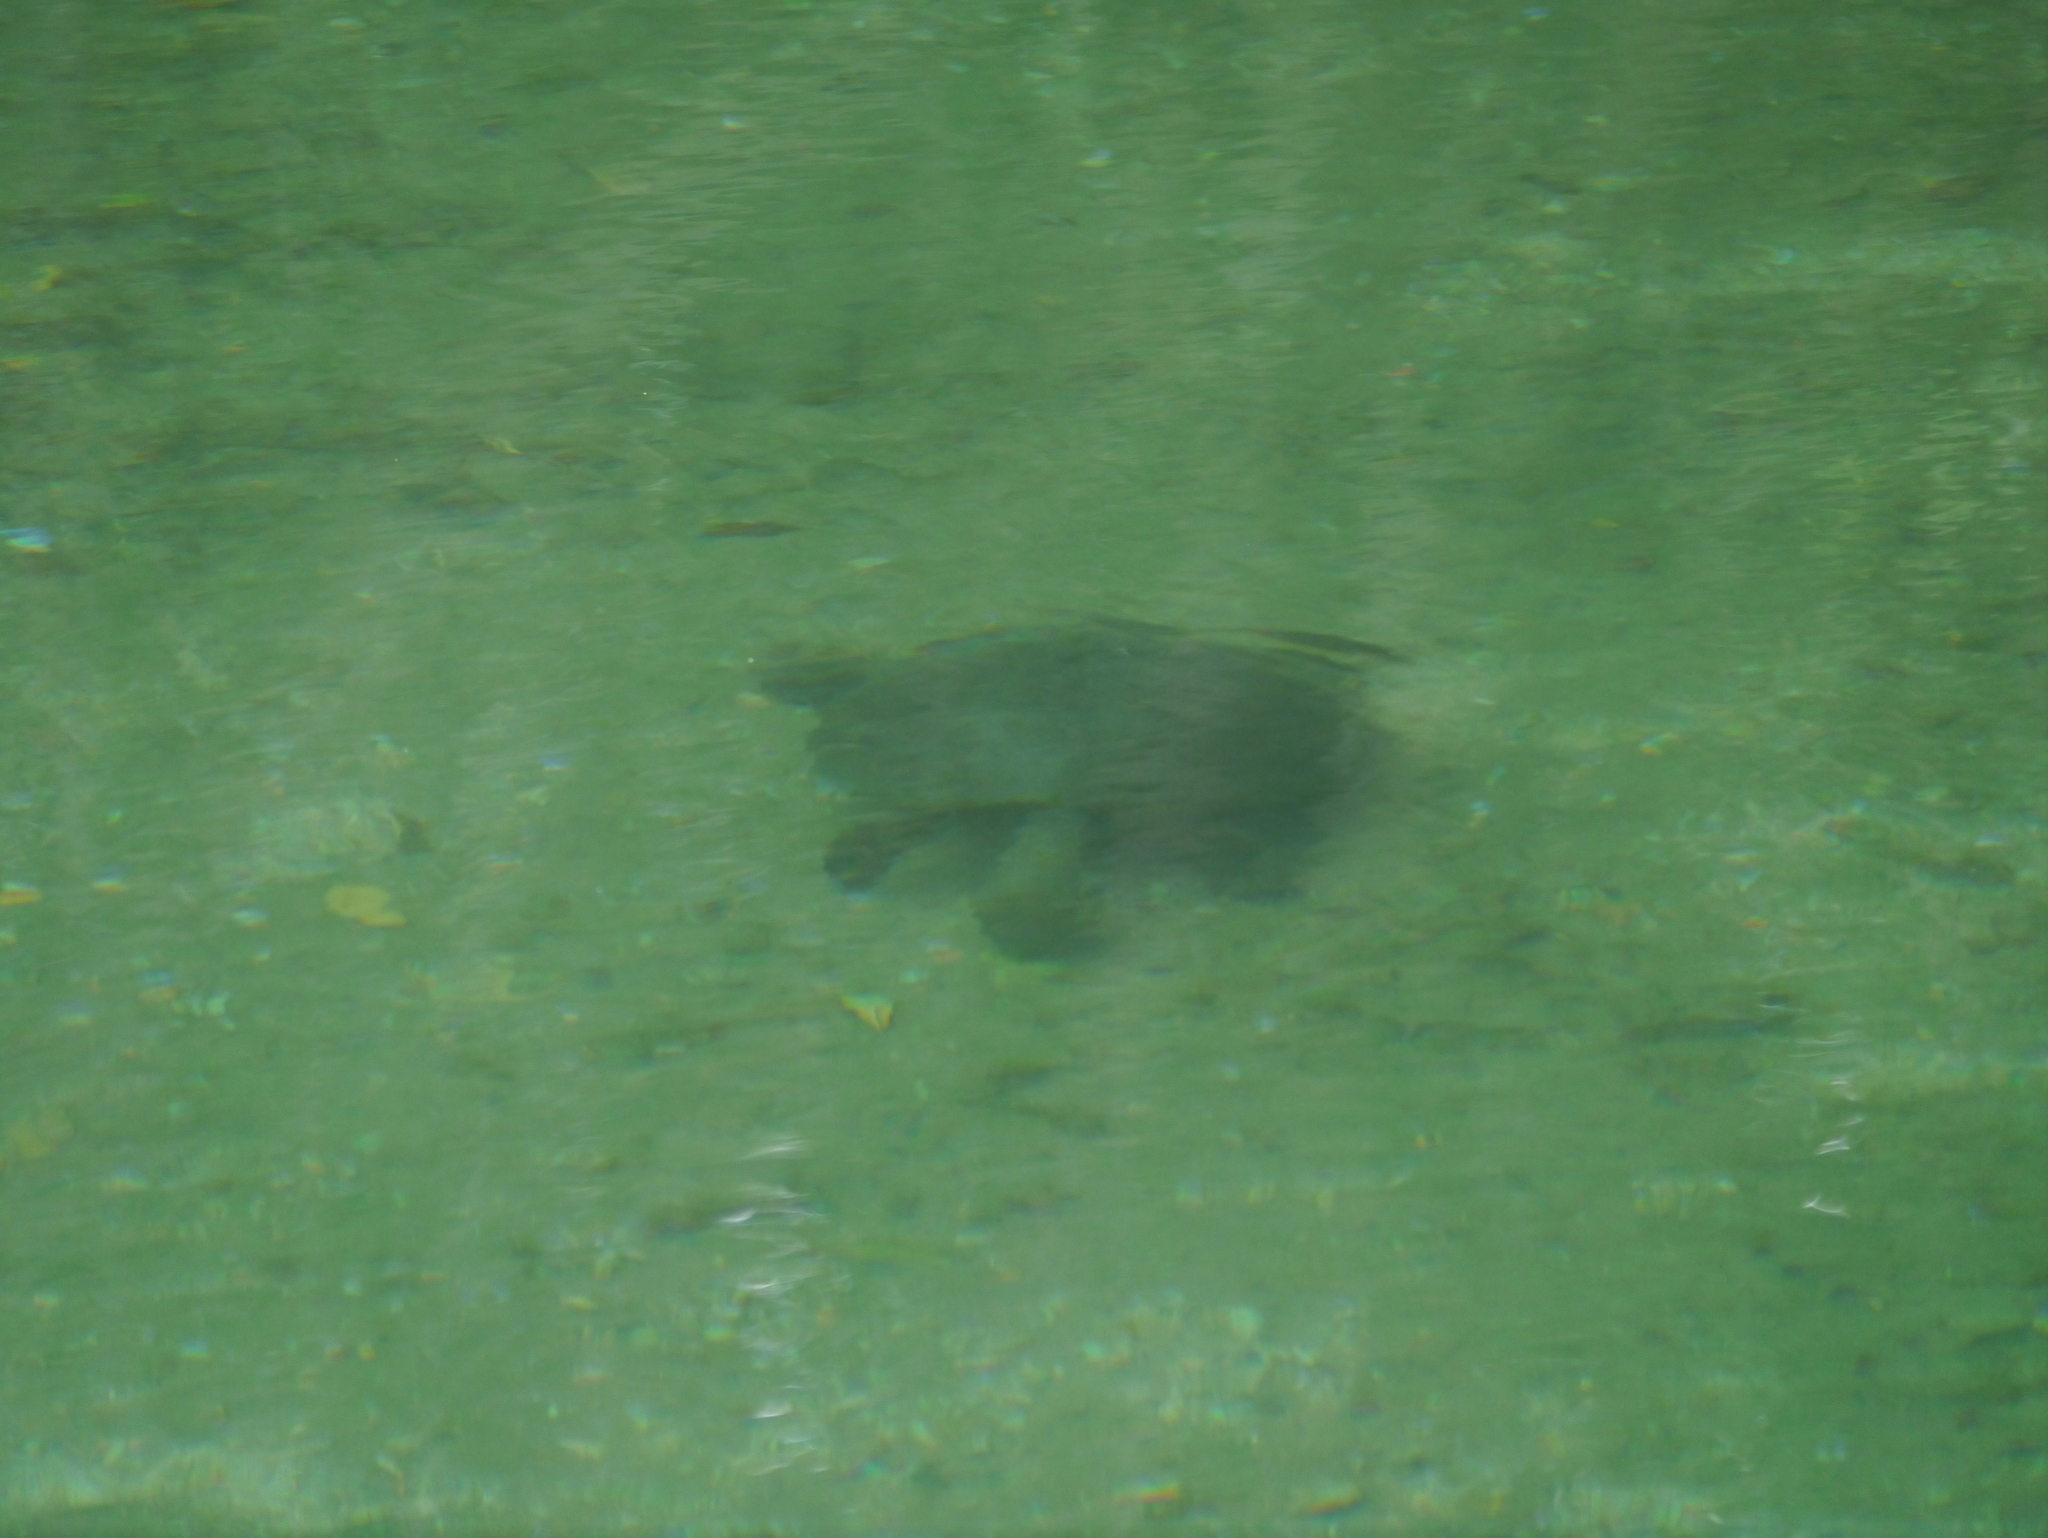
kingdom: Animalia
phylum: Chordata
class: Testudines
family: Dermatemydidae
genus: Dermatemys
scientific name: Dermatemys mawii
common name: Central american river turtle
